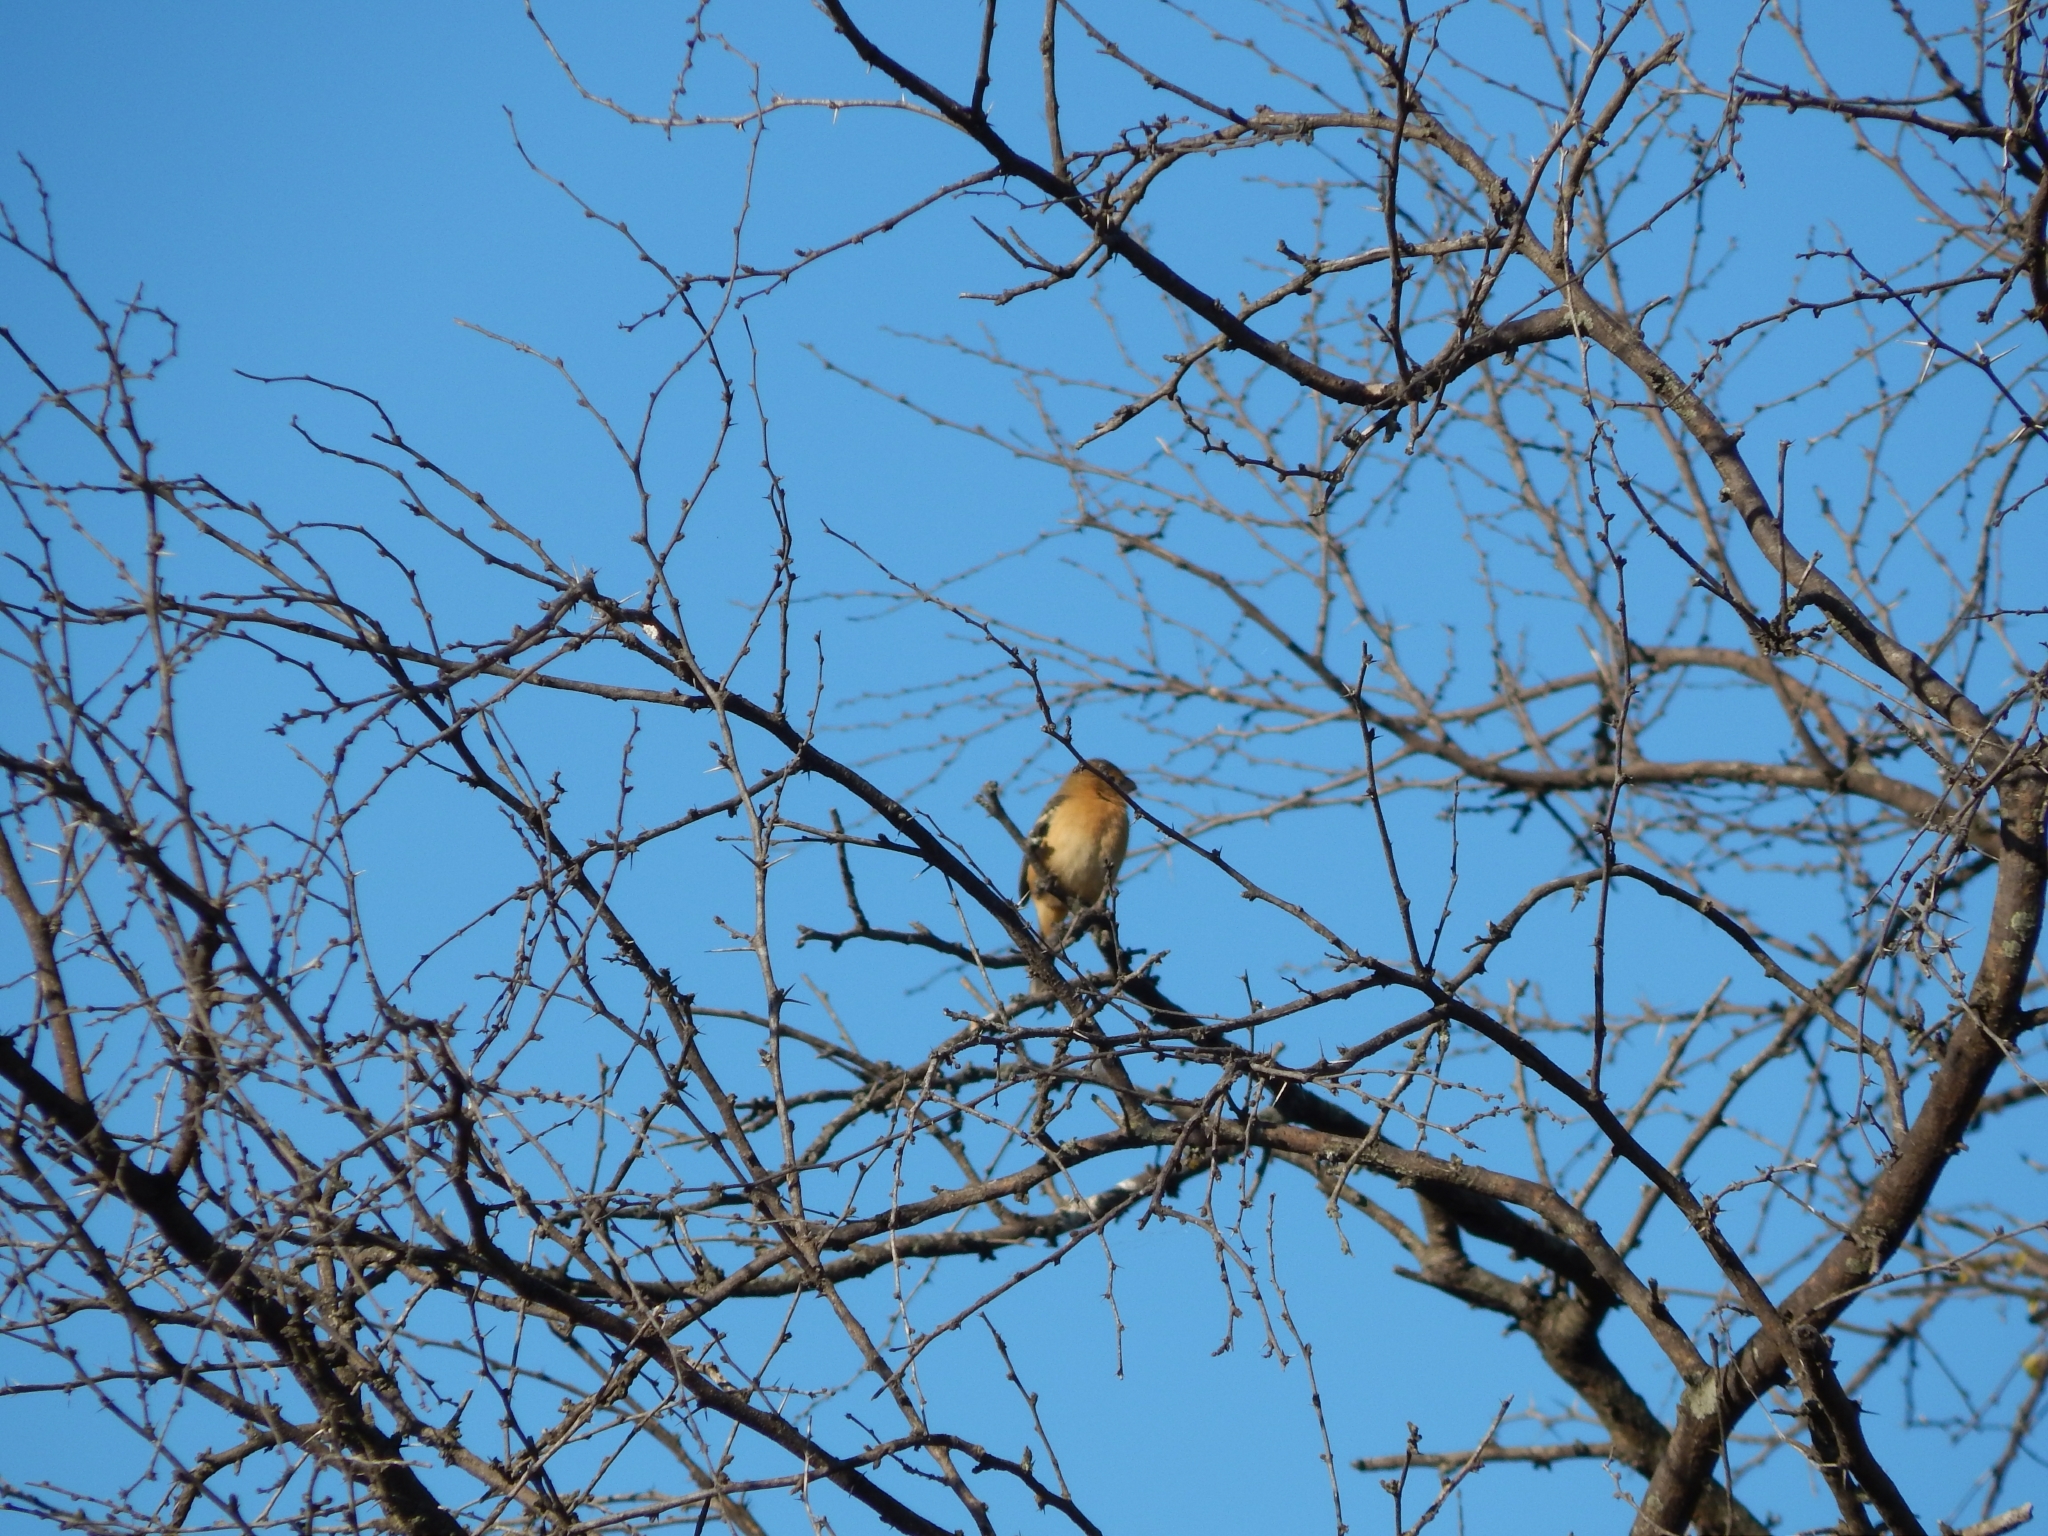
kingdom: Animalia
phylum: Chordata
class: Aves
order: Passeriformes
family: Thraupidae
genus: Sporophila
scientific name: Sporophila morelleti
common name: Morelet's seedeater
